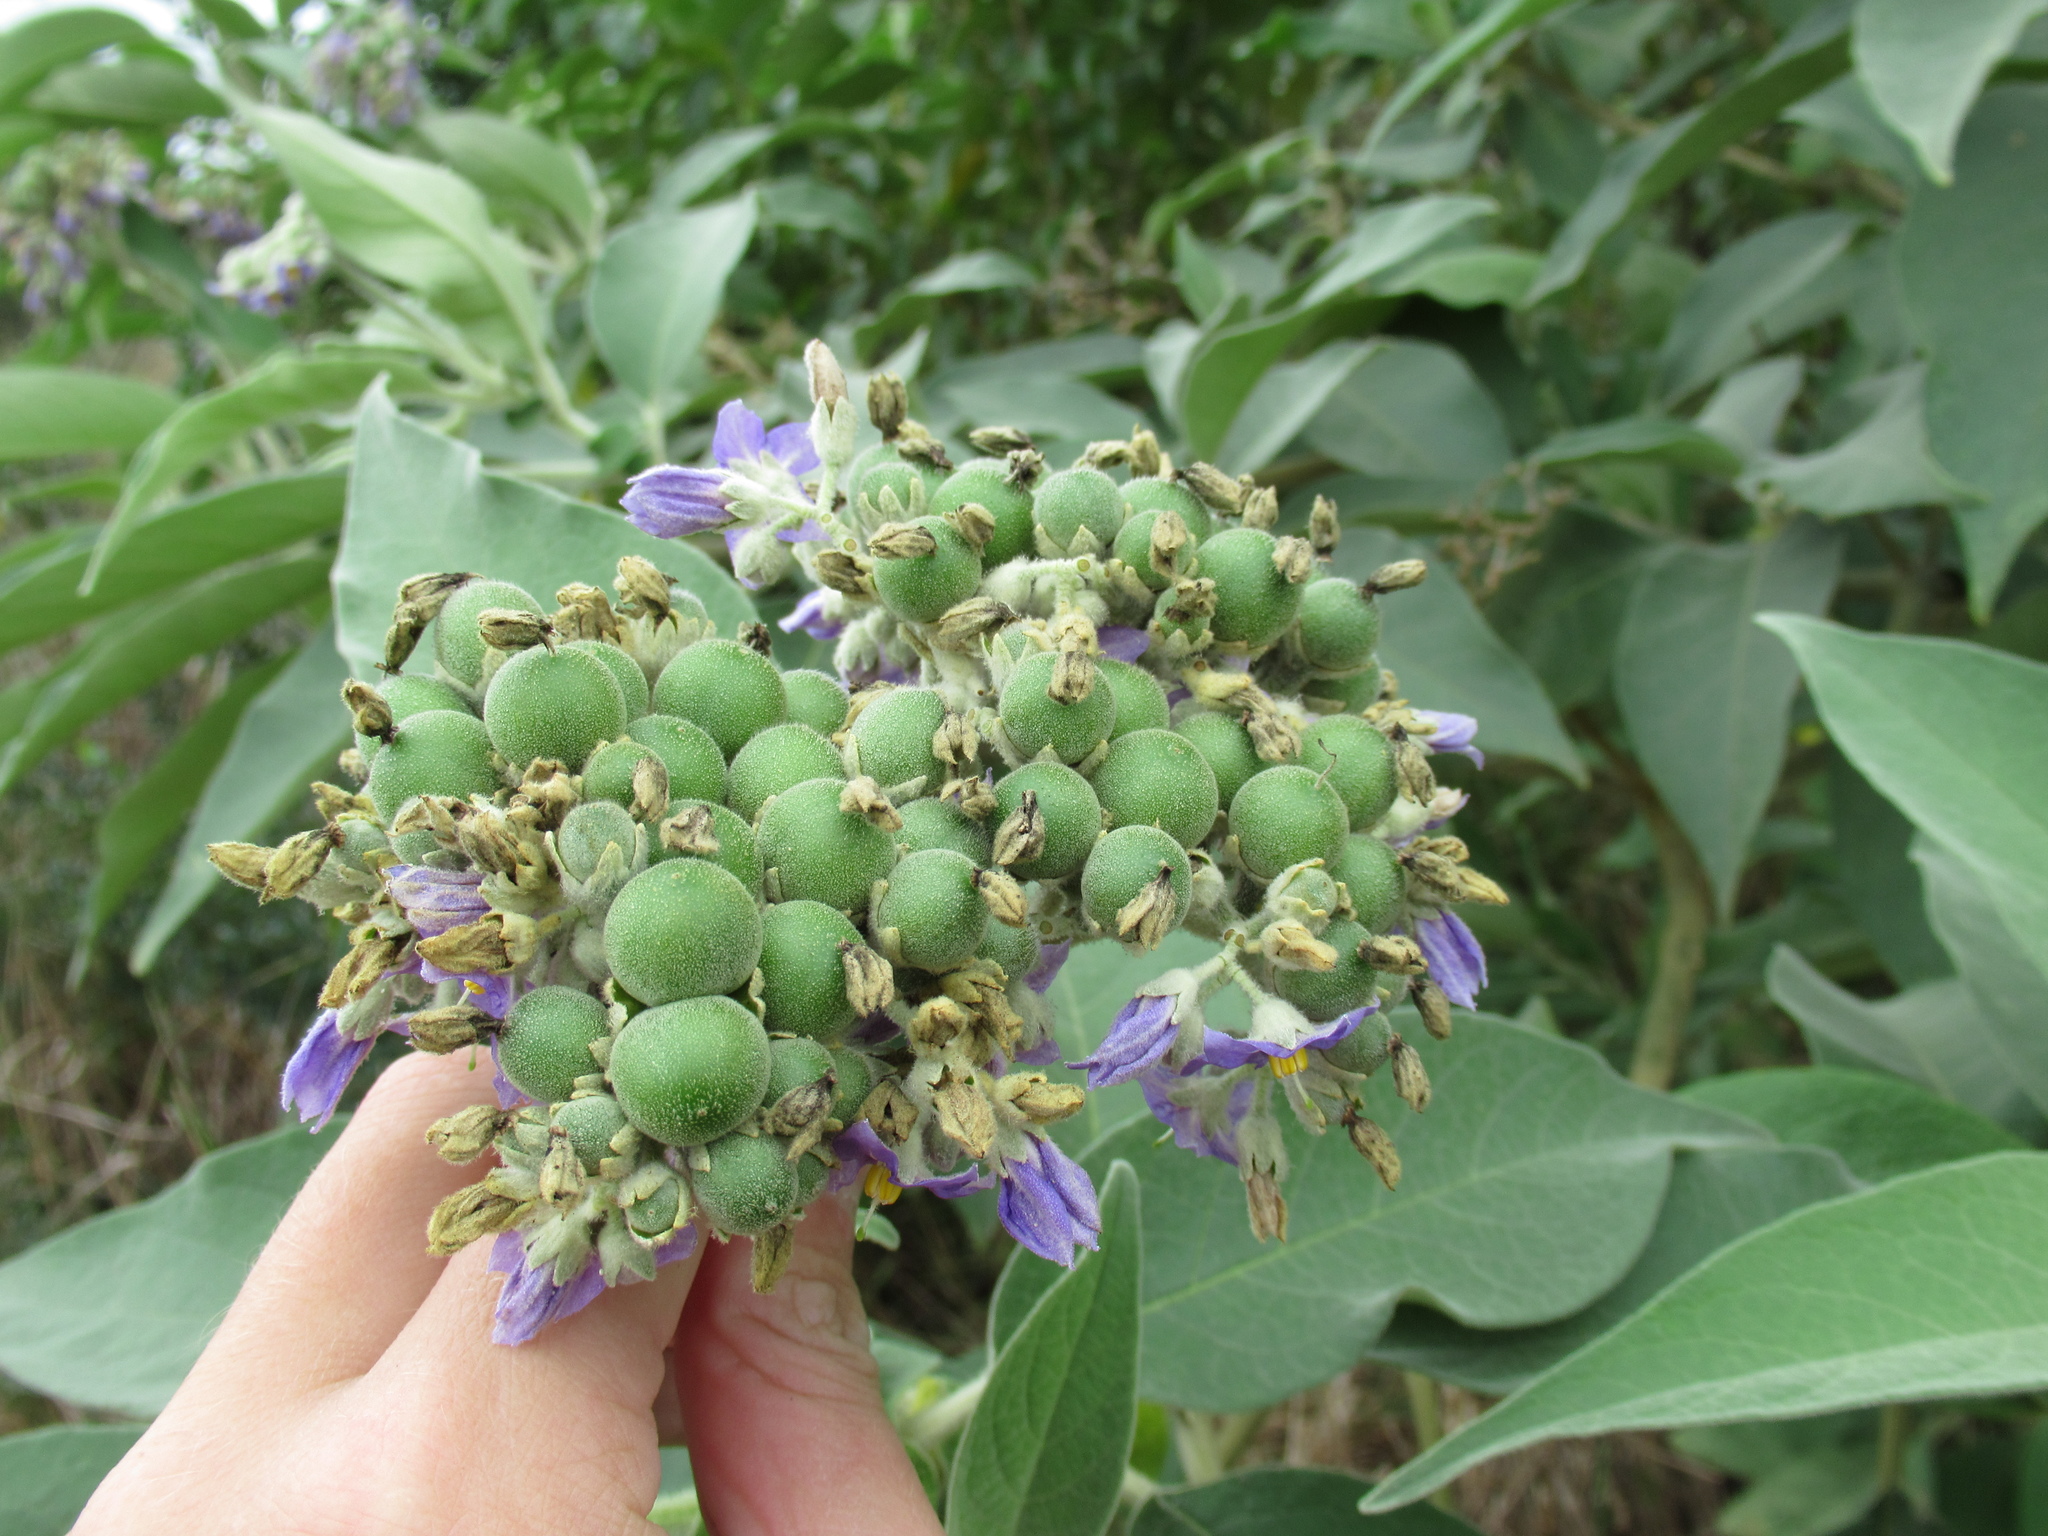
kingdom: Plantae
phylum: Tracheophyta
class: Magnoliopsida
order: Solanales
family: Solanaceae
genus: Solanum
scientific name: Solanum mauritianum
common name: Earleaf nightshade
